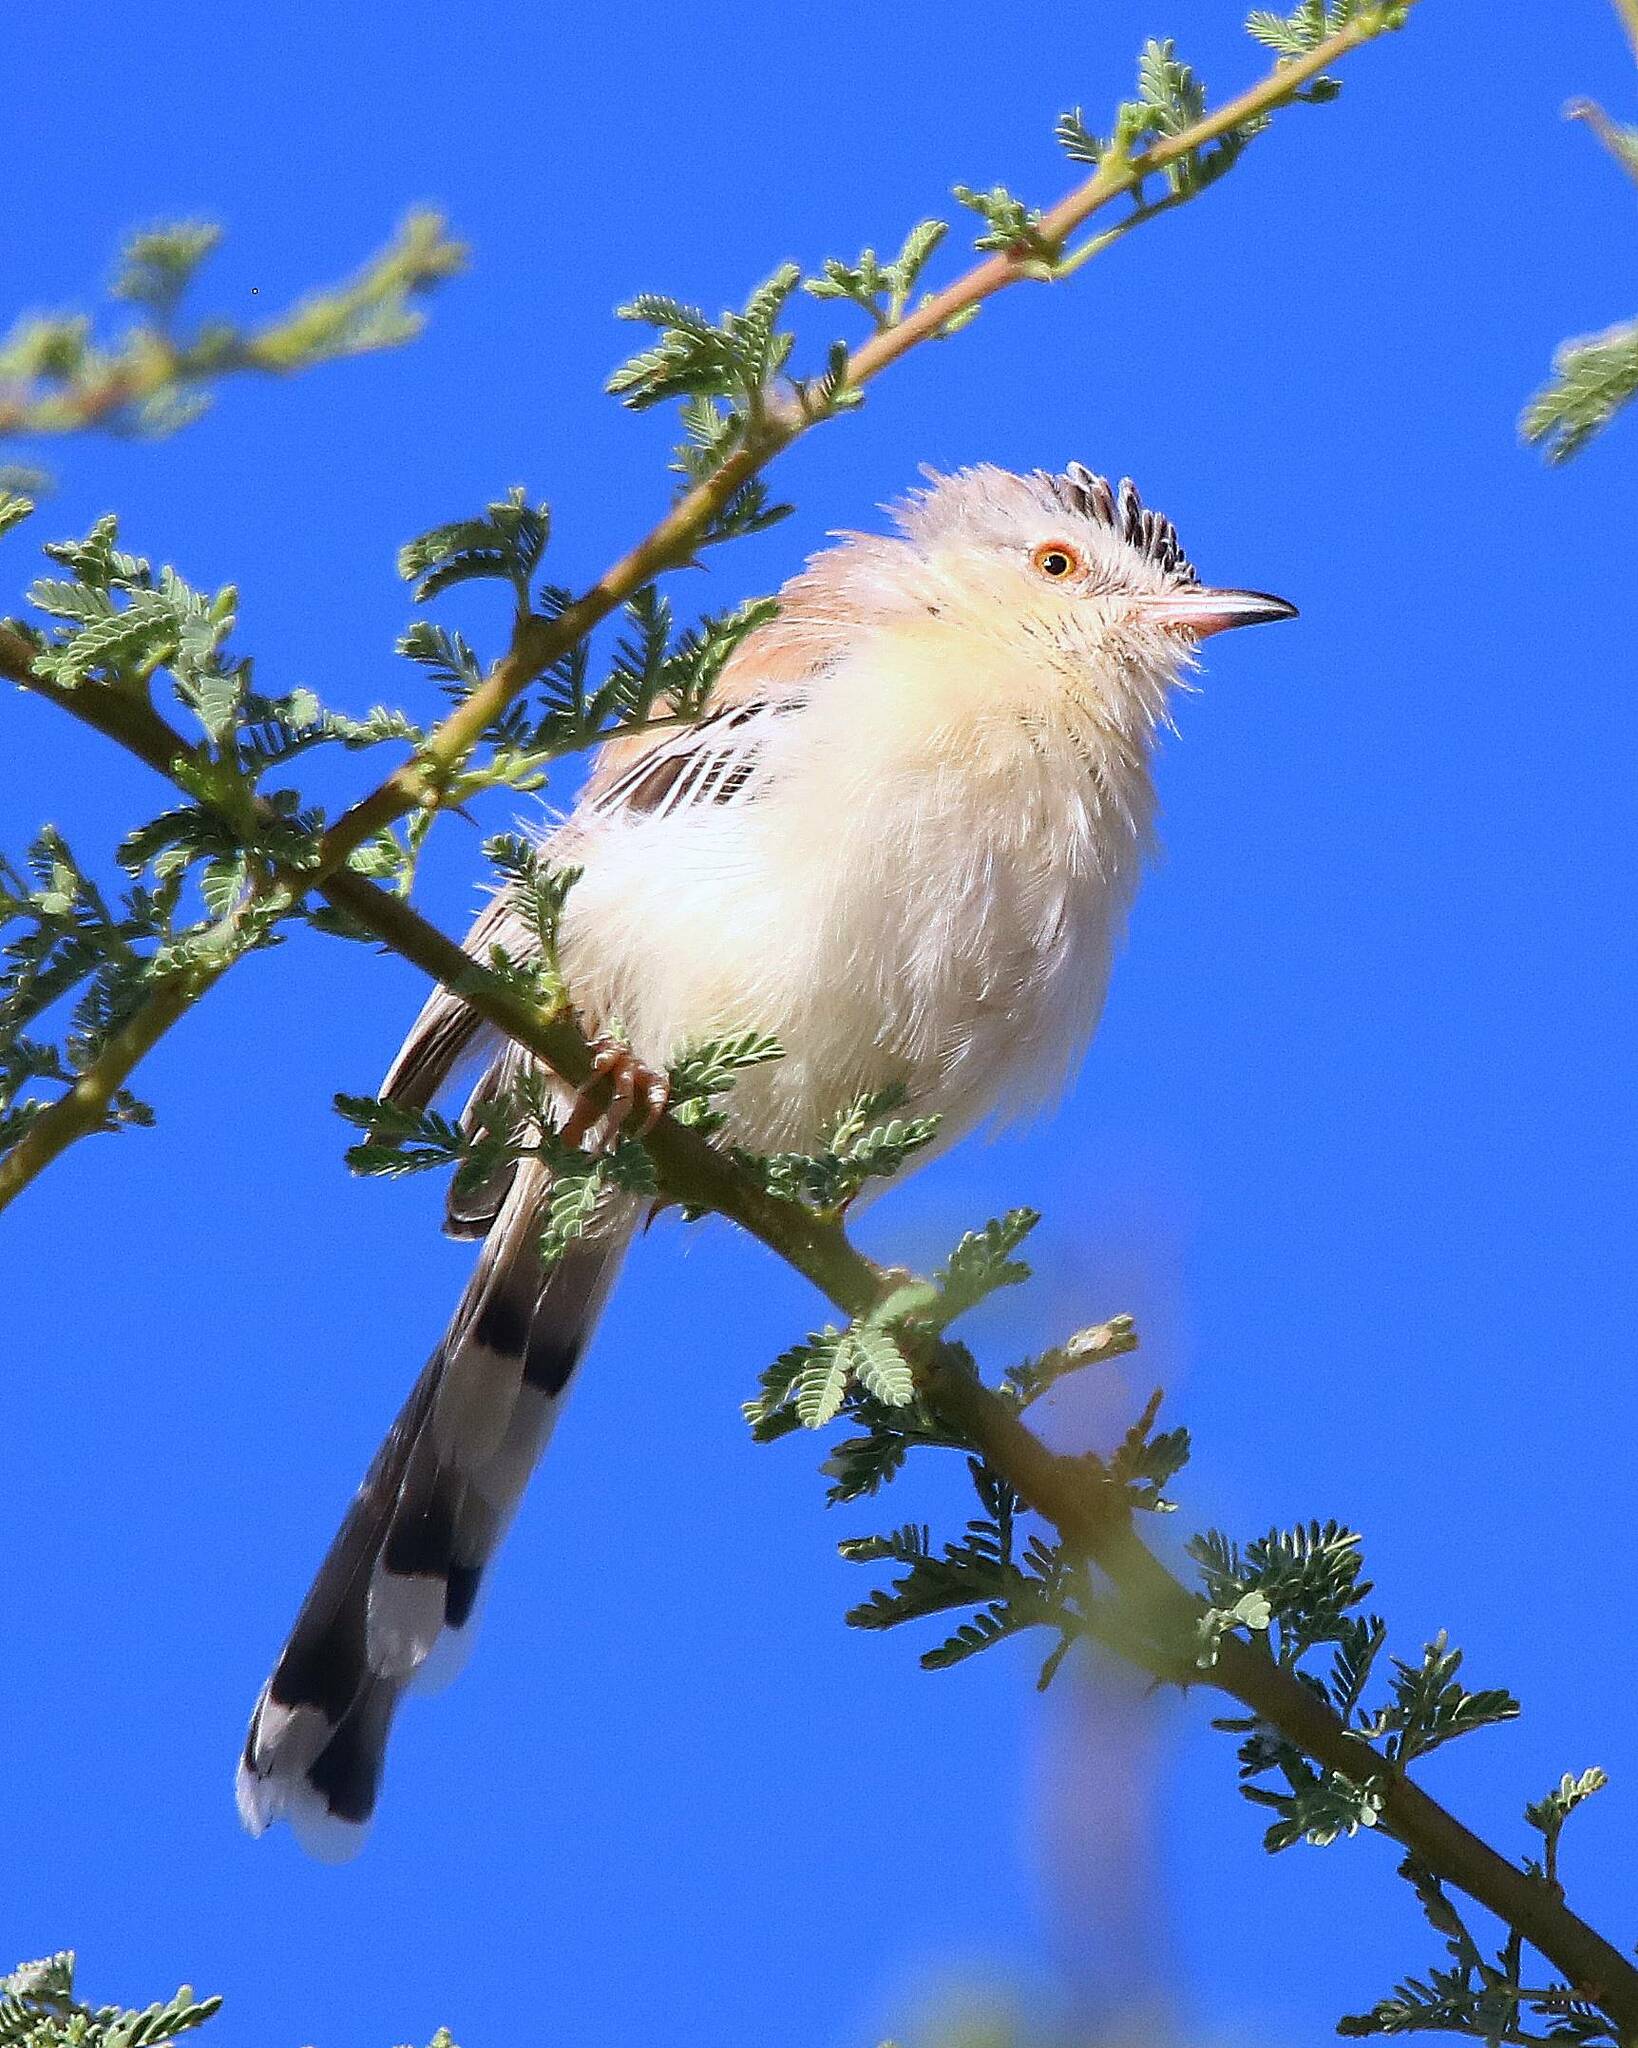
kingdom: Animalia
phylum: Chordata
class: Aves
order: Passeriformes
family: Cisticolidae
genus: Spiloptila
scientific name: Spiloptila clamans
